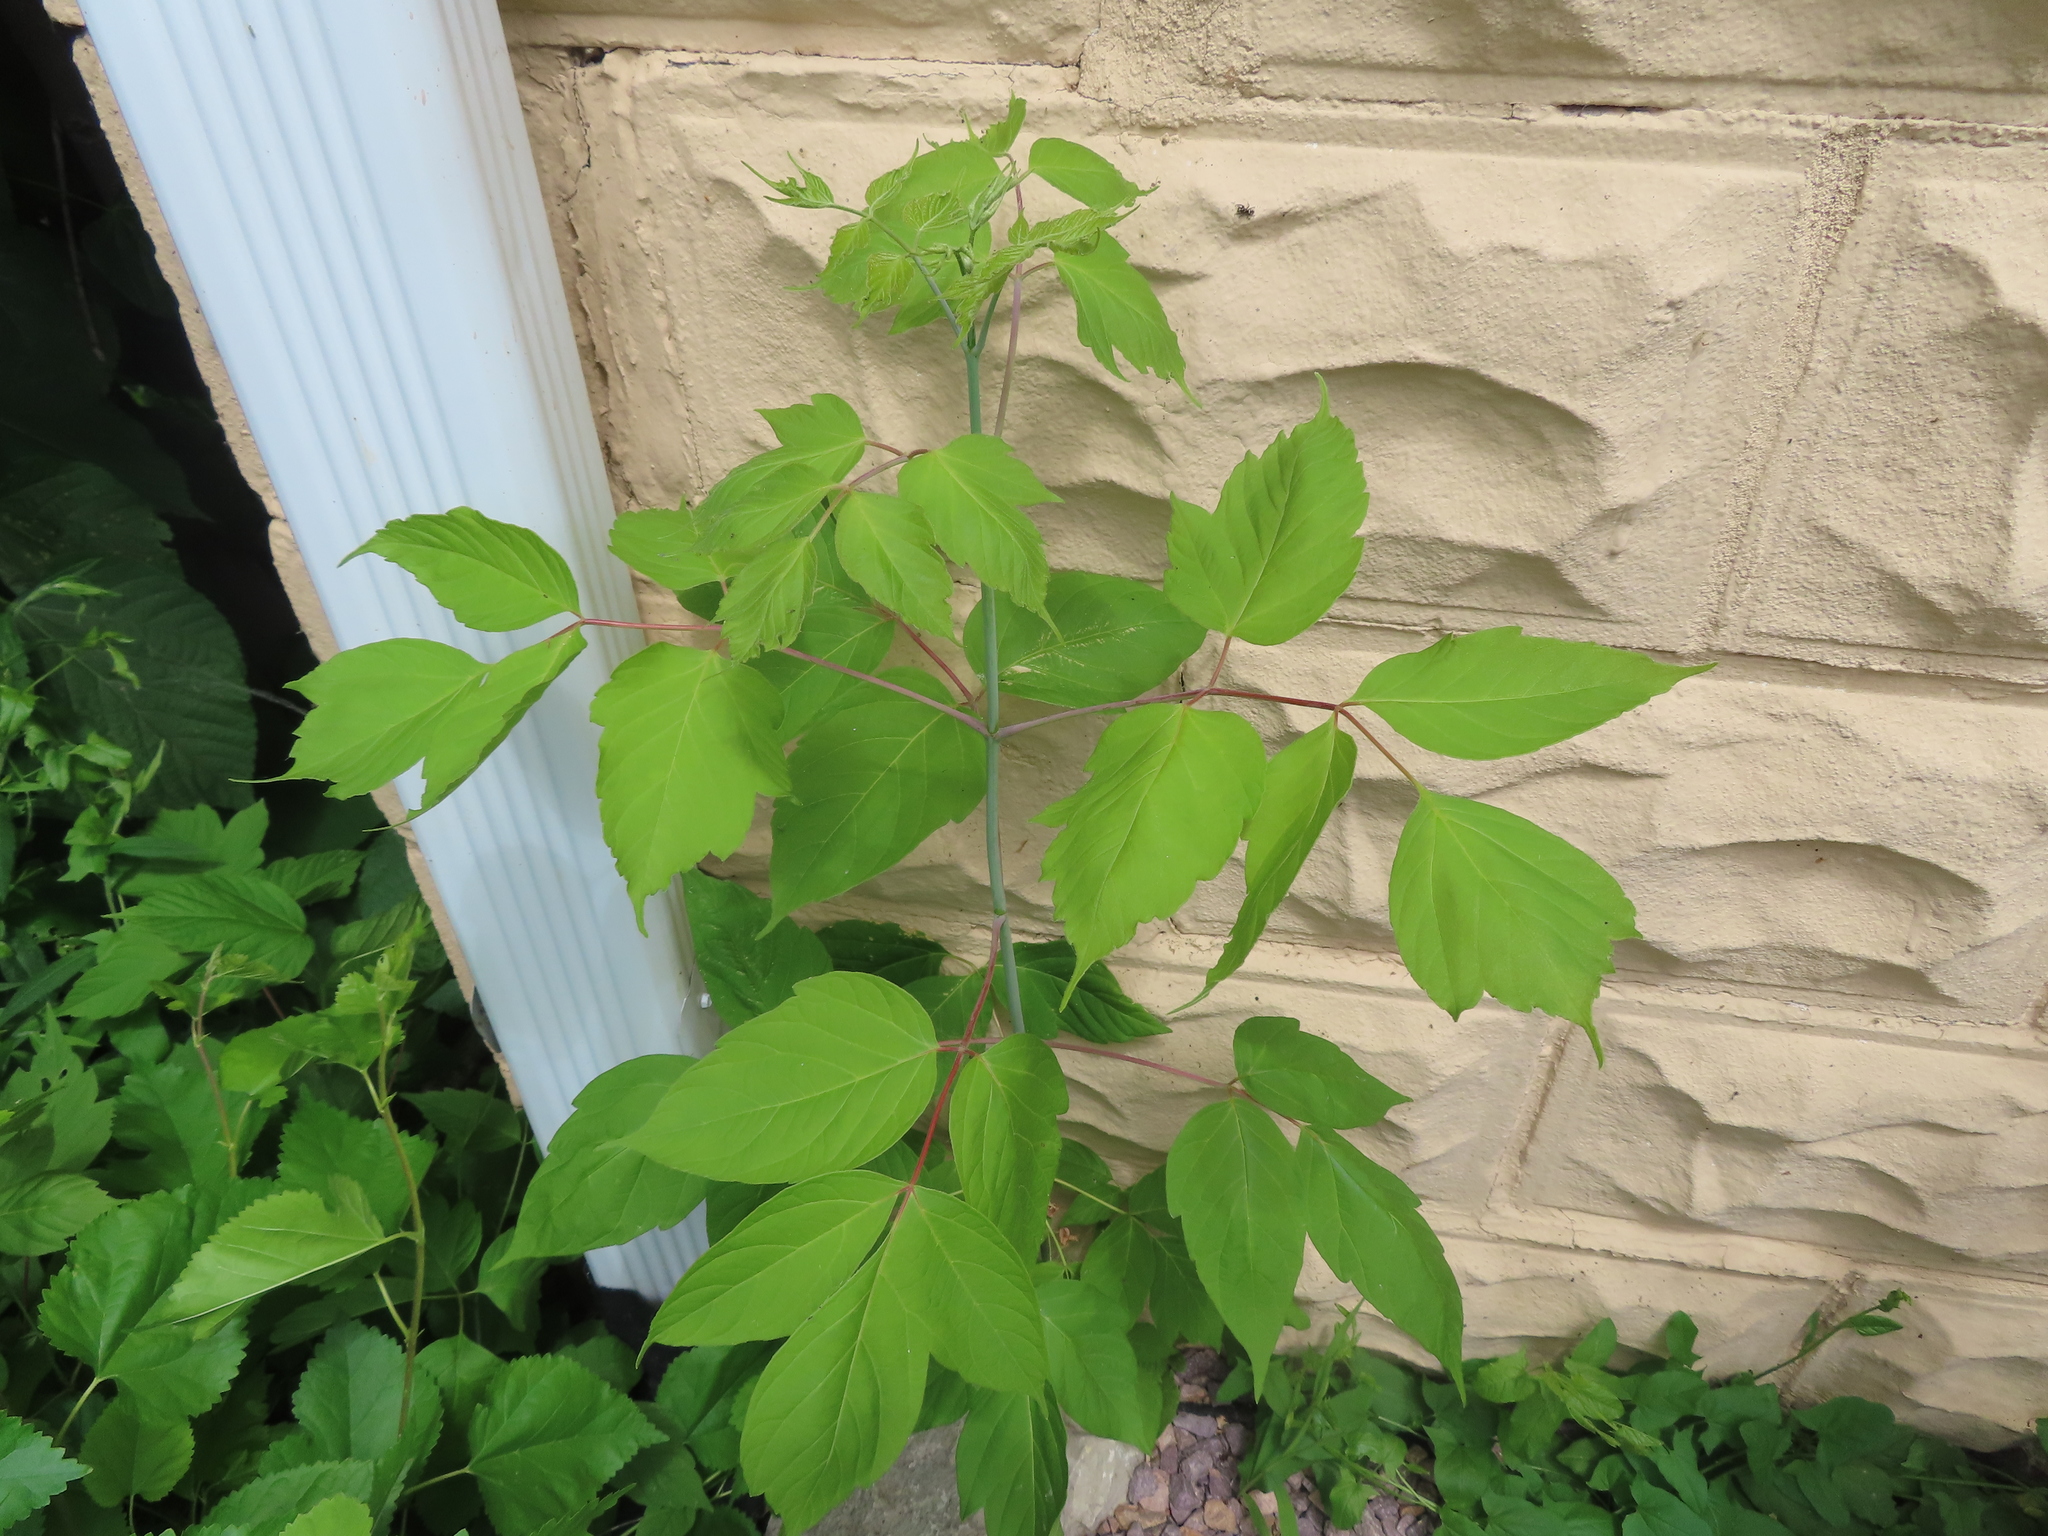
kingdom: Plantae
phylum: Tracheophyta
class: Magnoliopsida
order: Sapindales
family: Sapindaceae
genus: Acer
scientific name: Acer negundo
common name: Ashleaf maple
